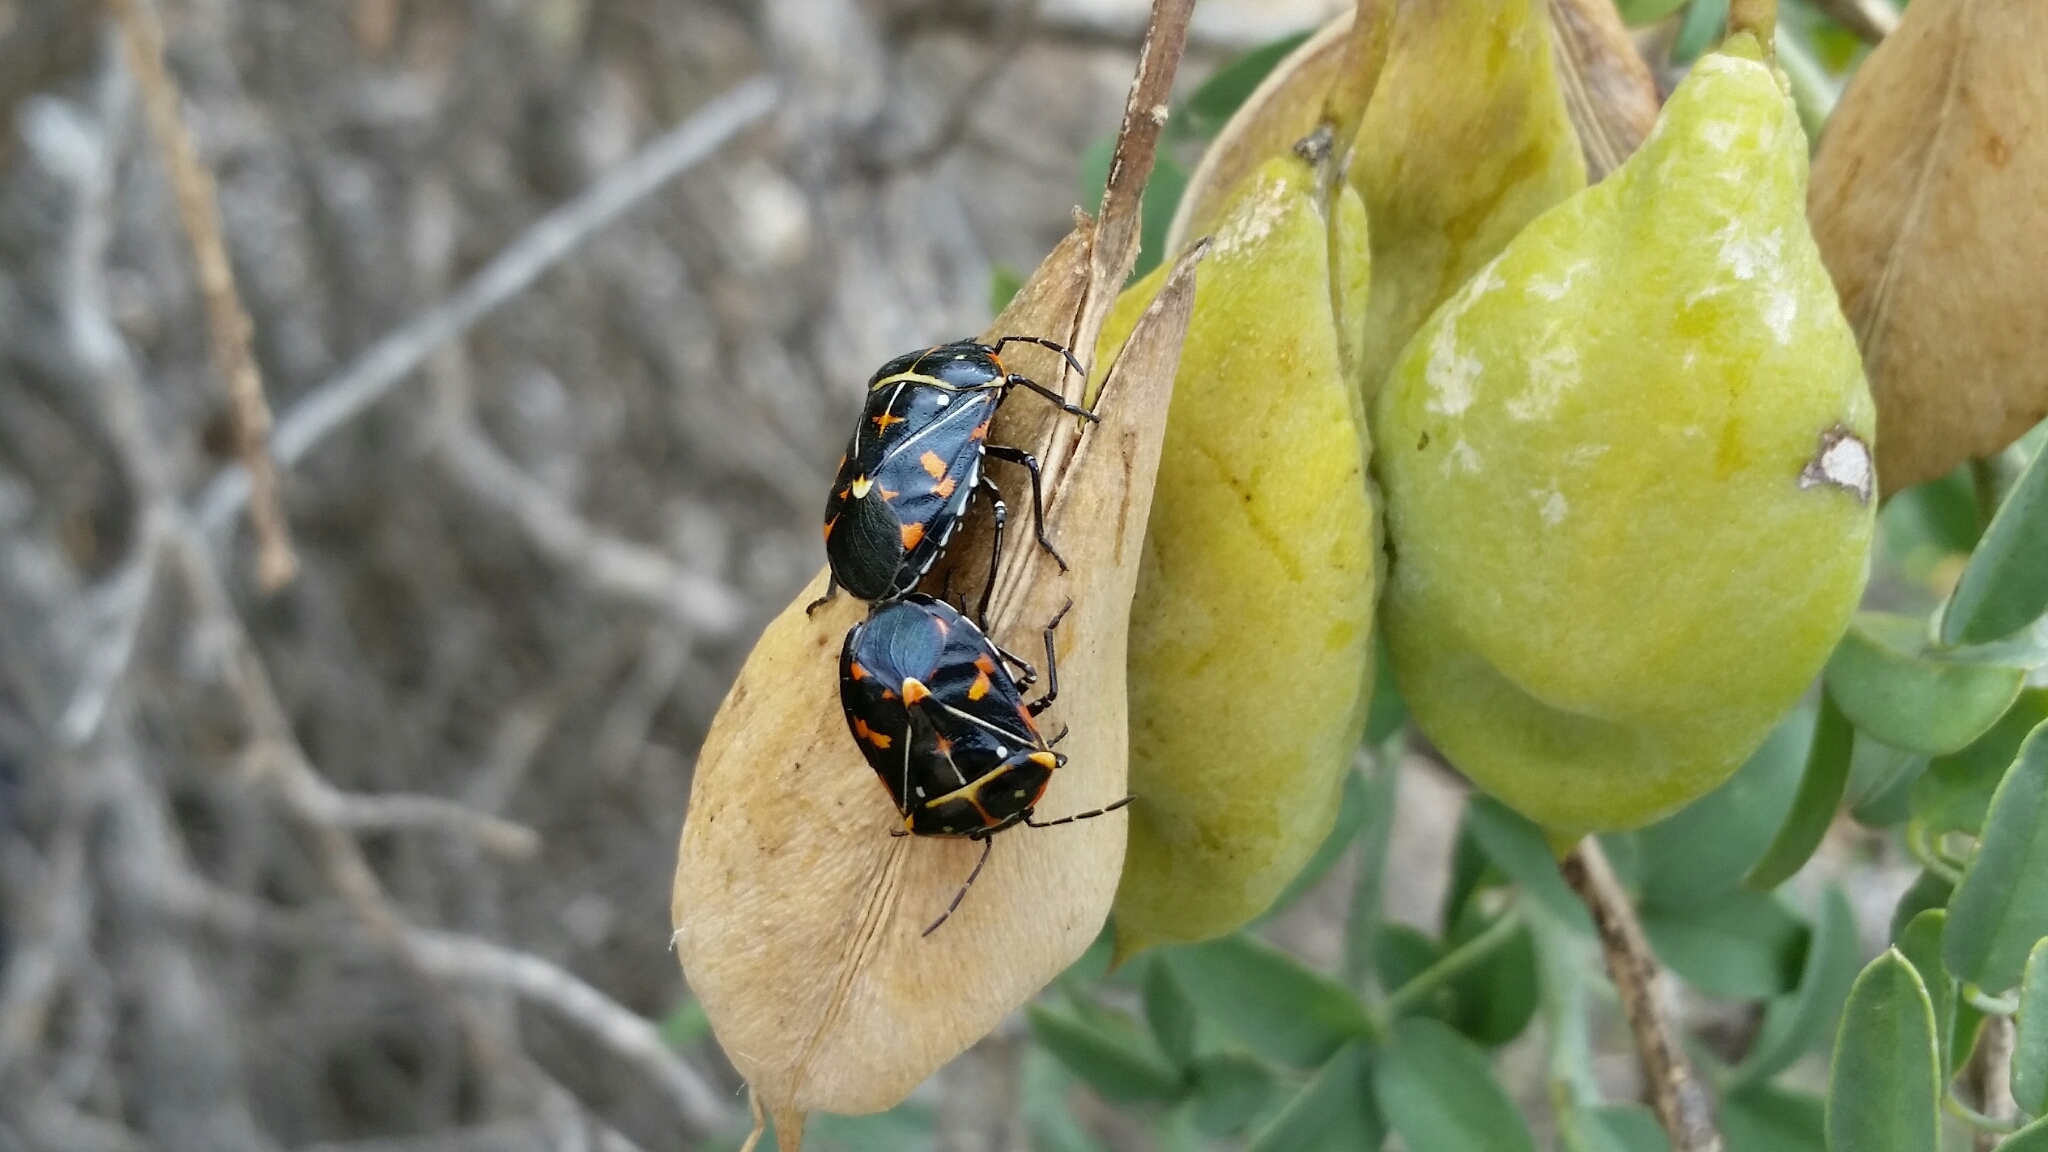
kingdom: Animalia
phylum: Arthropoda
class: Insecta
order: Hemiptera
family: Pentatomidae
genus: Murgantia
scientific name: Murgantia histrionica
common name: Harlequin bug
